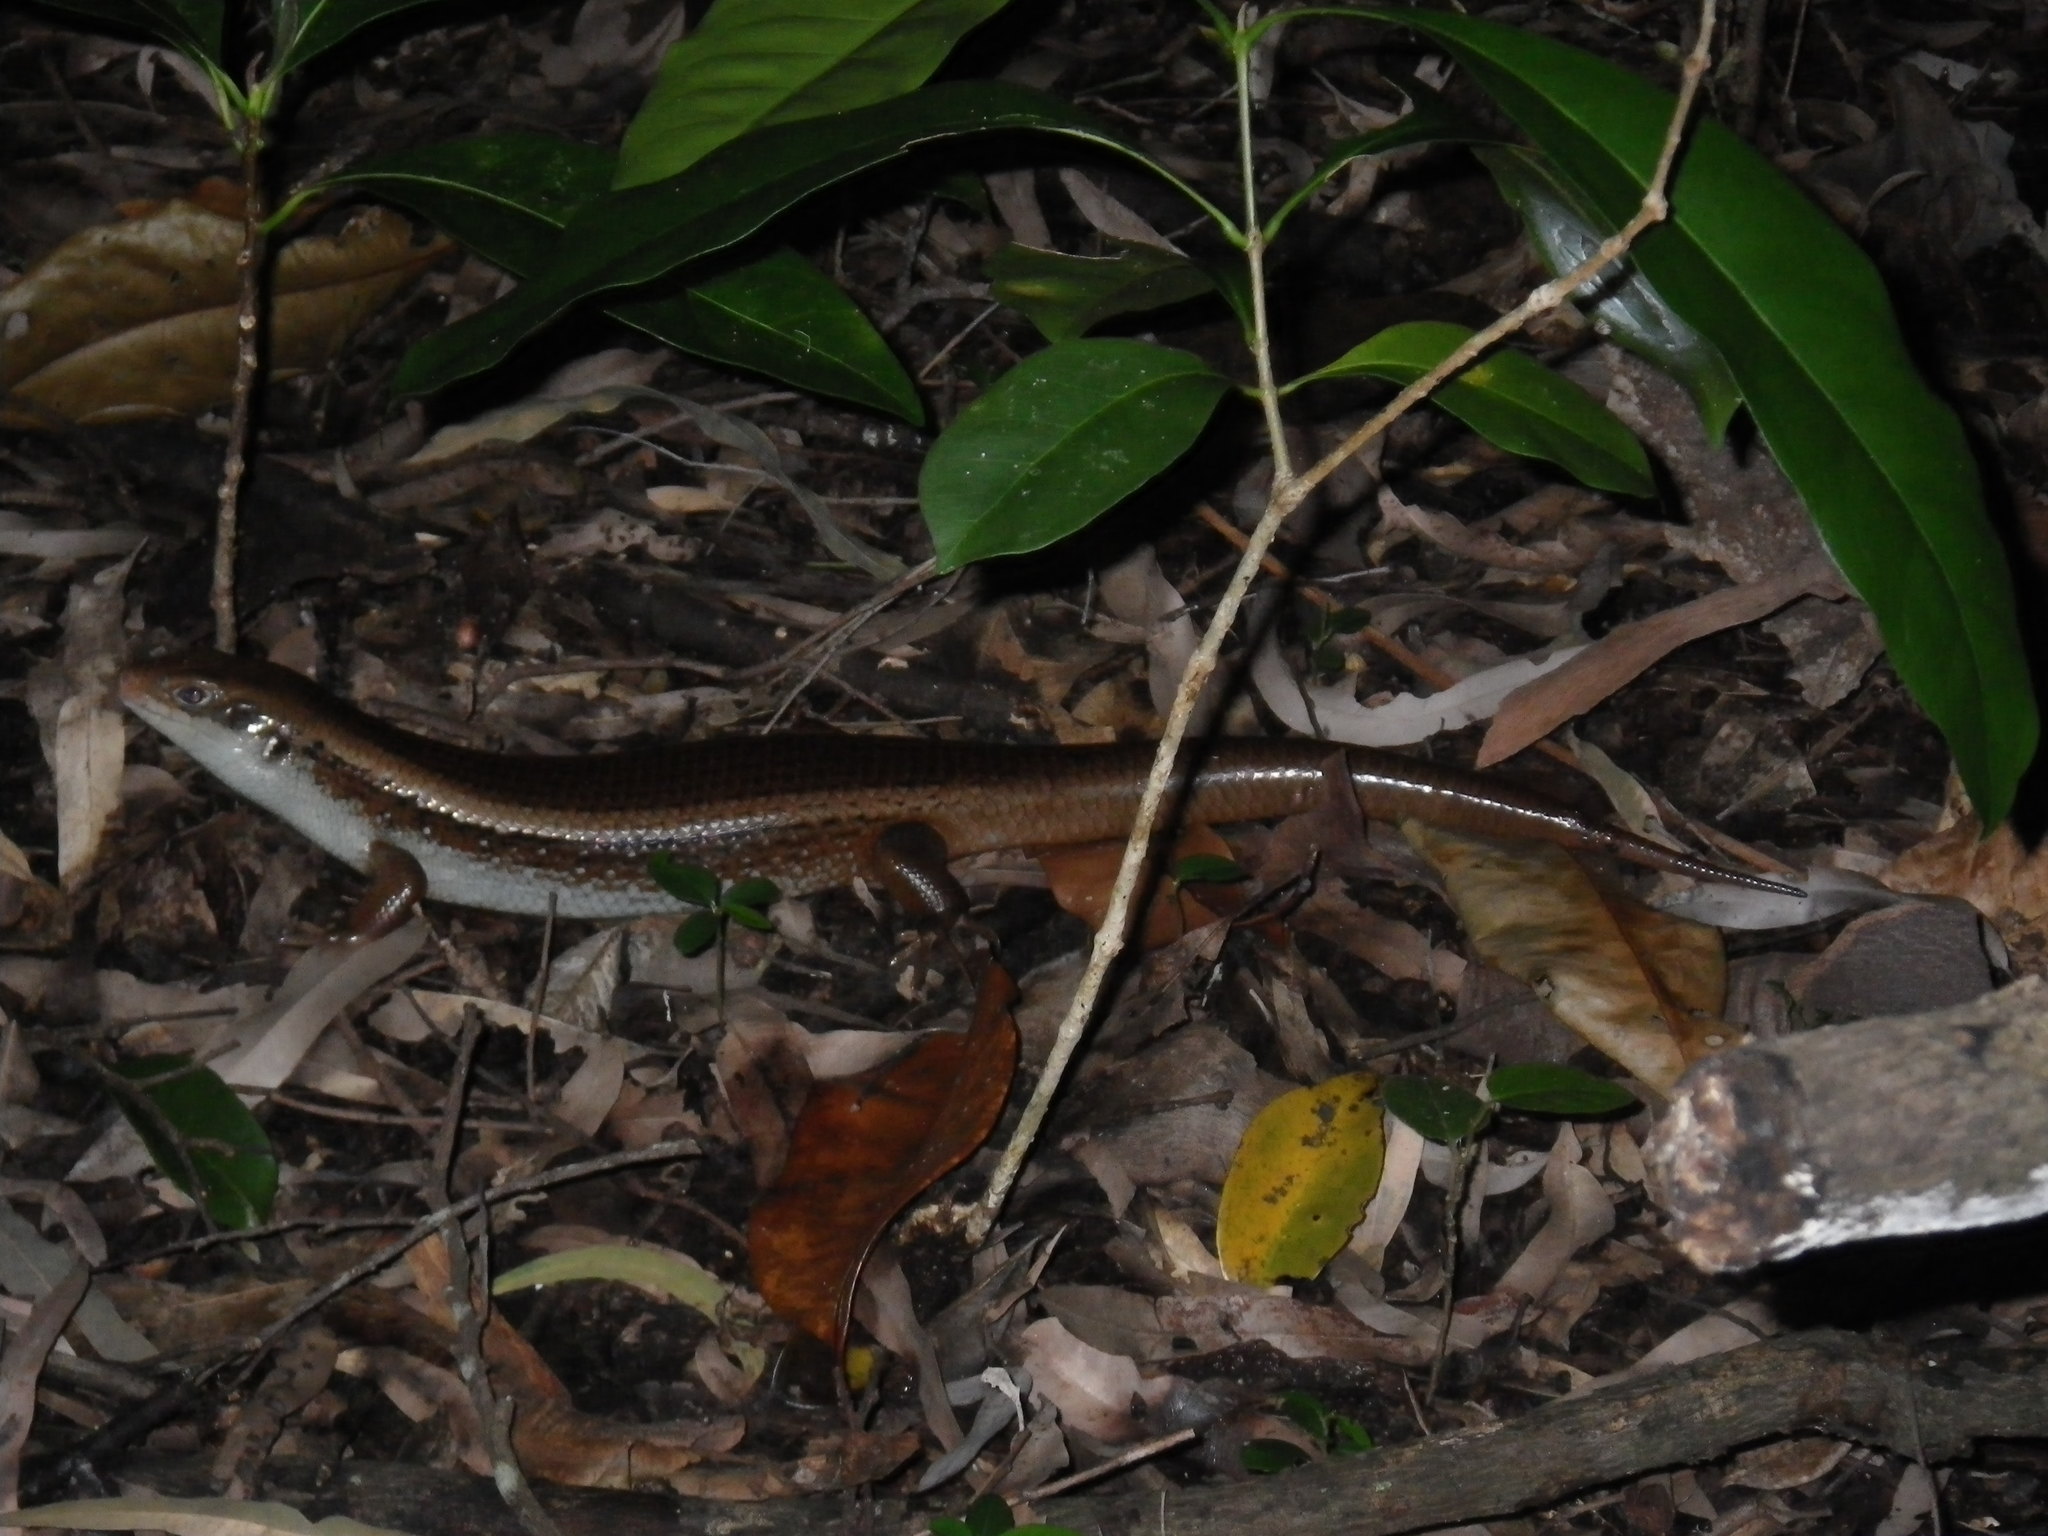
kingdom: Animalia
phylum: Chordata
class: Squamata
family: Scincidae
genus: Bellatorias
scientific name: Bellatorias frerei
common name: Major skink
